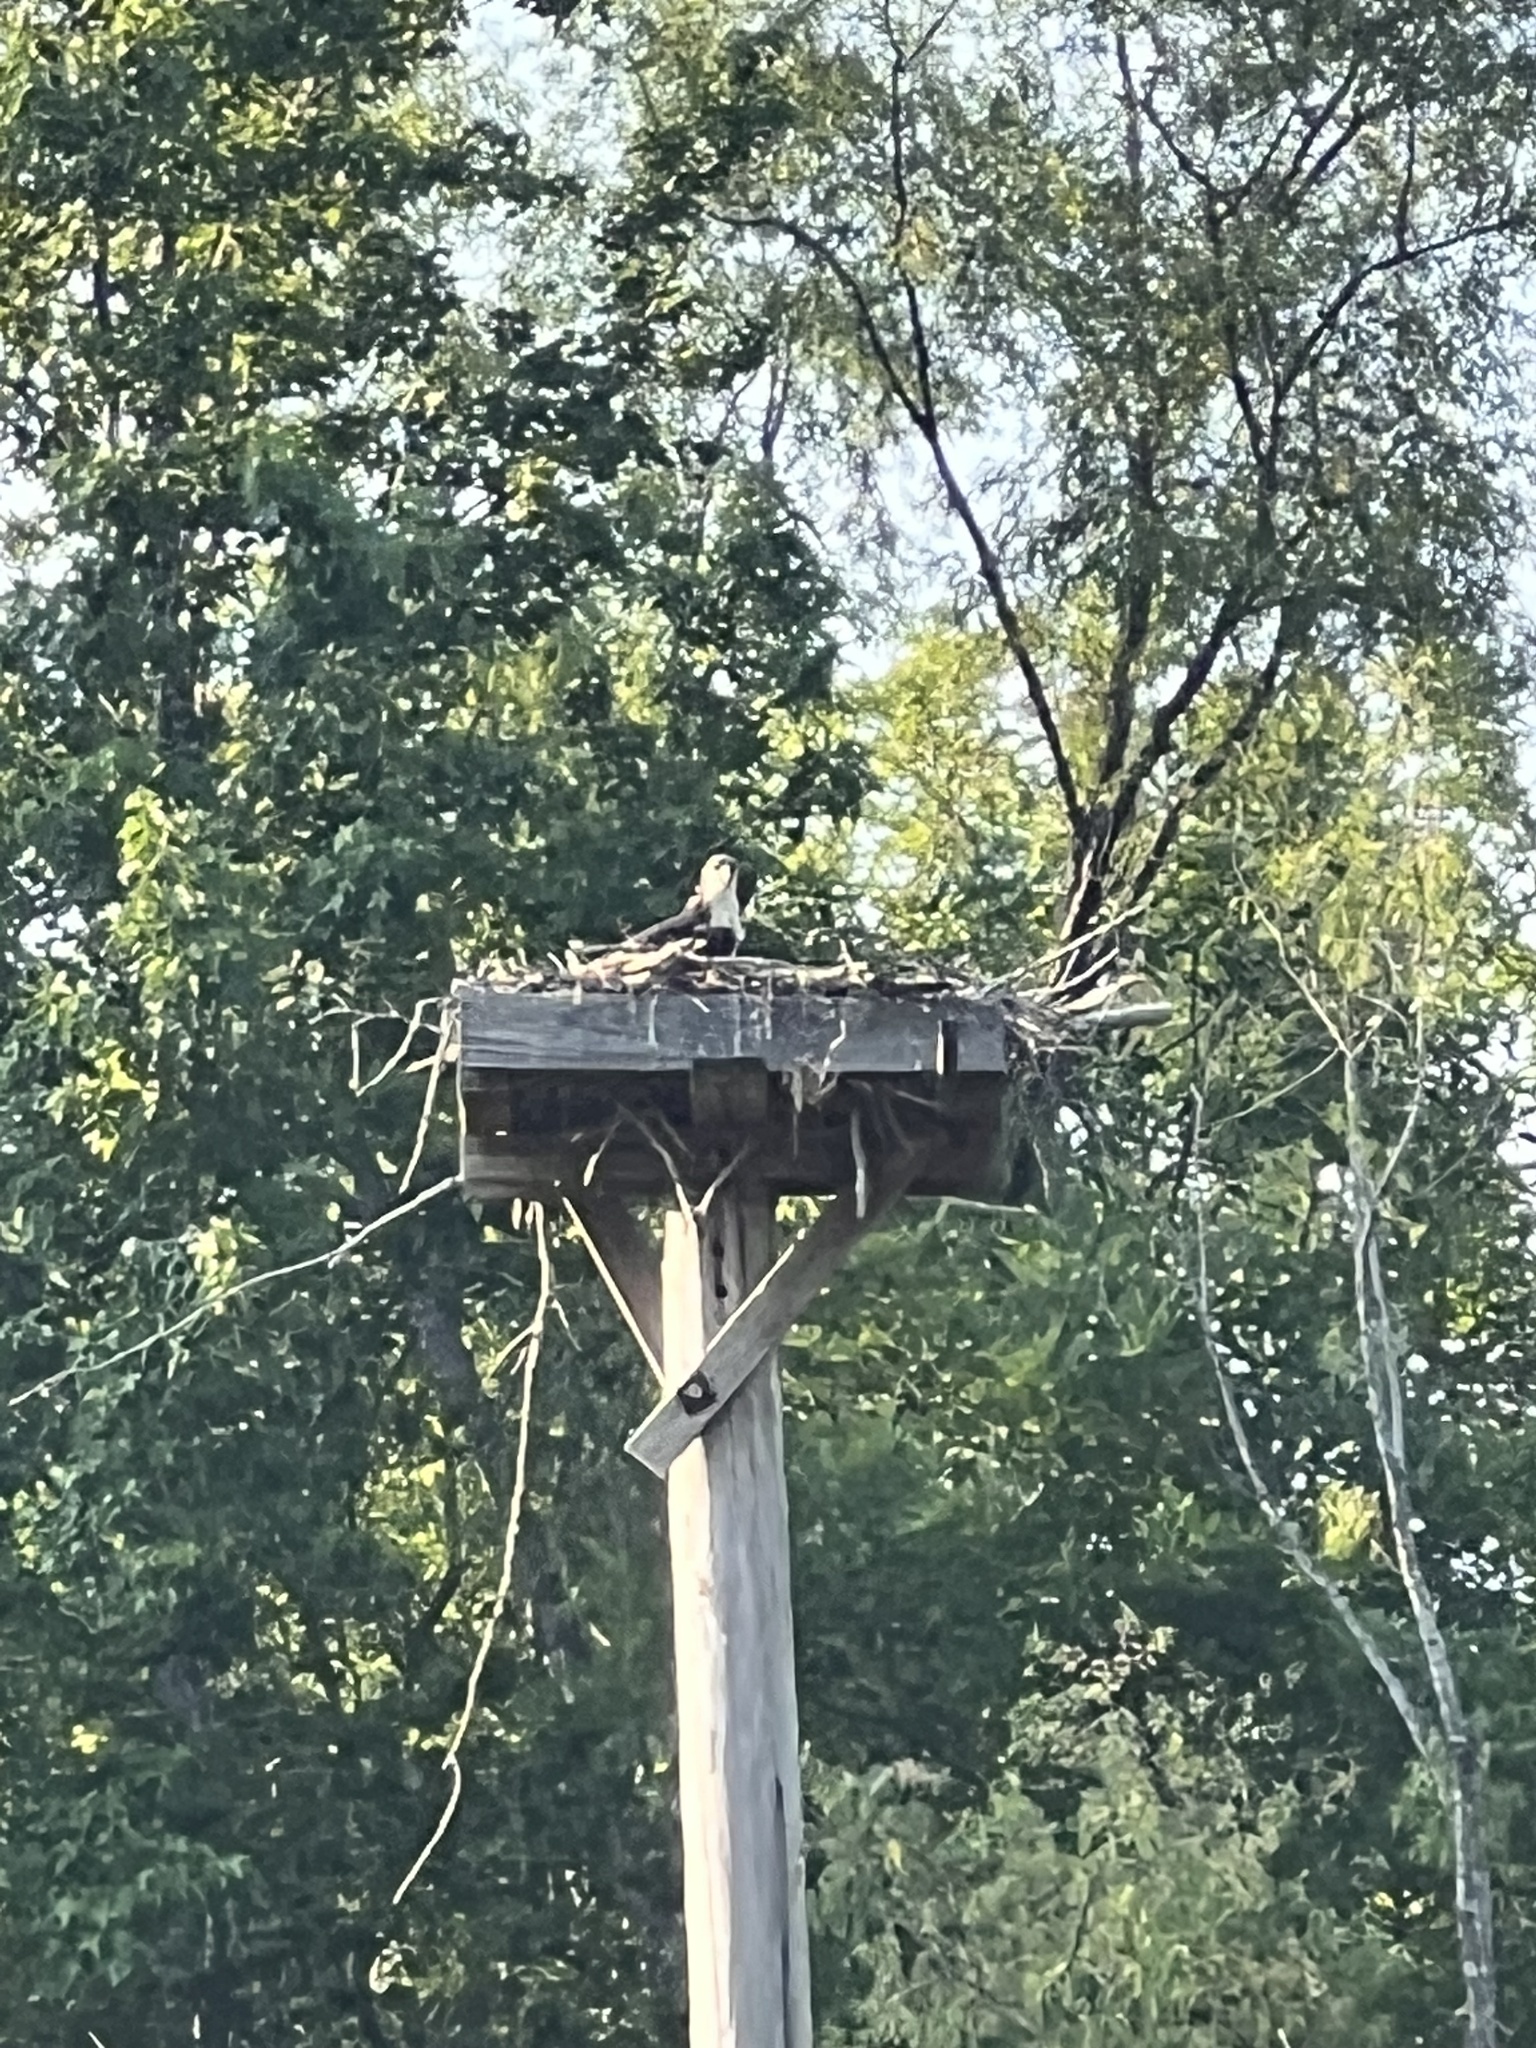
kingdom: Animalia
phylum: Chordata
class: Aves
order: Accipitriformes
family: Pandionidae
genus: Pandion
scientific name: Pandion haliaetus
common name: Osprey
